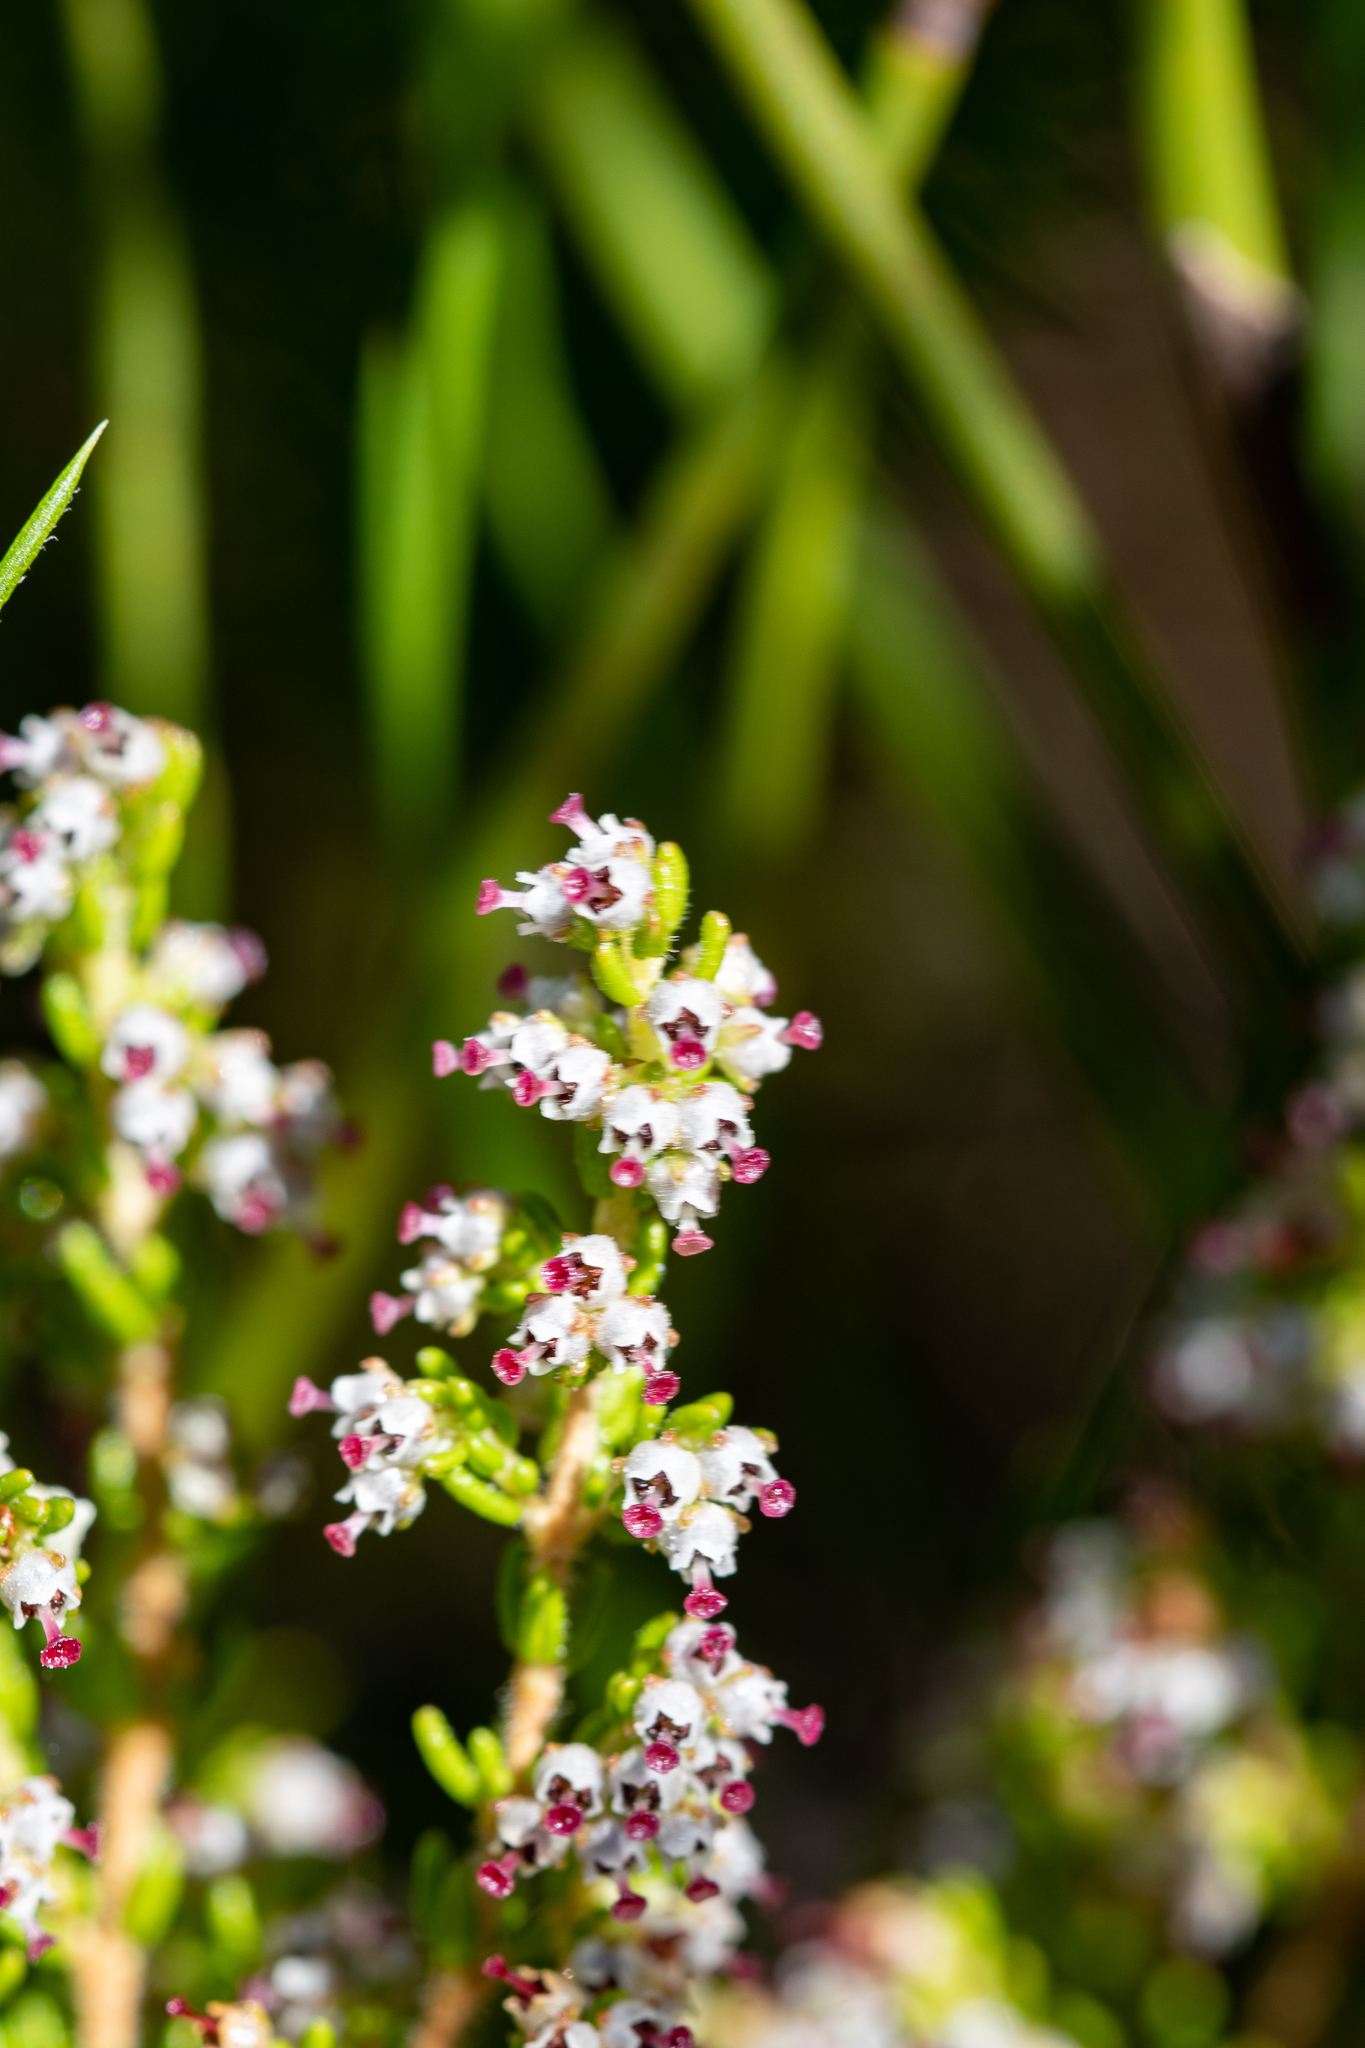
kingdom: Plantae
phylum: Tracheophyta
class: Magnoliopsida
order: Ericales
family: Ericaceae
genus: Erica
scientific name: Erica hispidula
